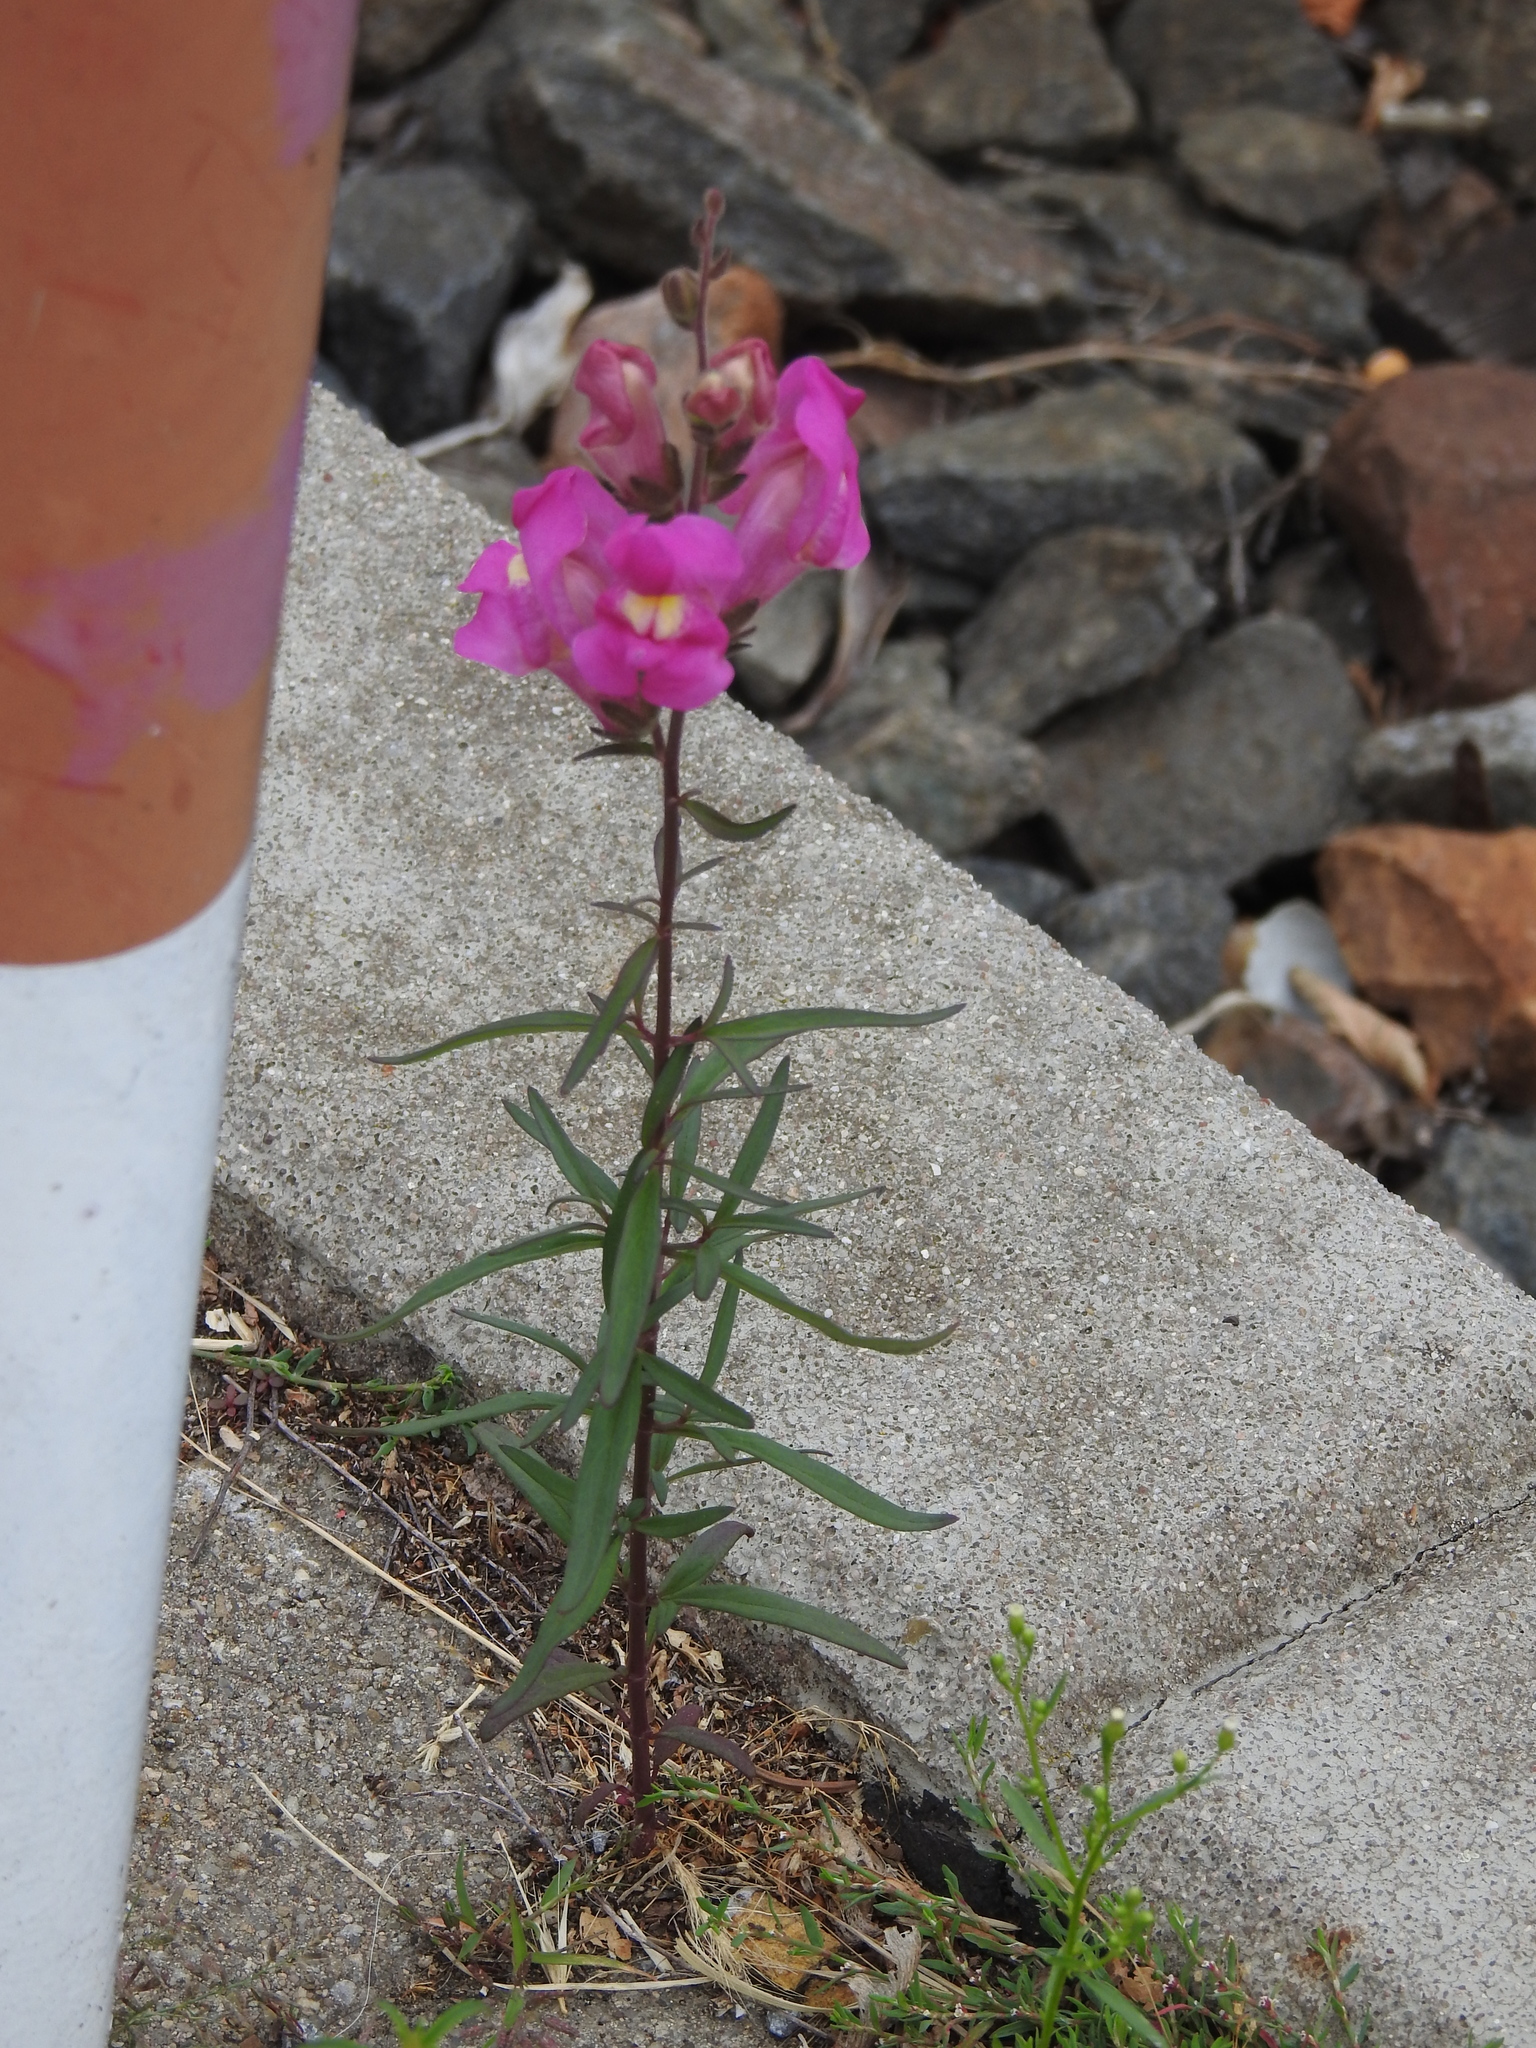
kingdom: Plantae
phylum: Tracheophyta
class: Magnoliopsida
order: Lamiales
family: Plantaginaceae
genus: Antirrhinum
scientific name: Antirrhinum majus
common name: Snapdragon
